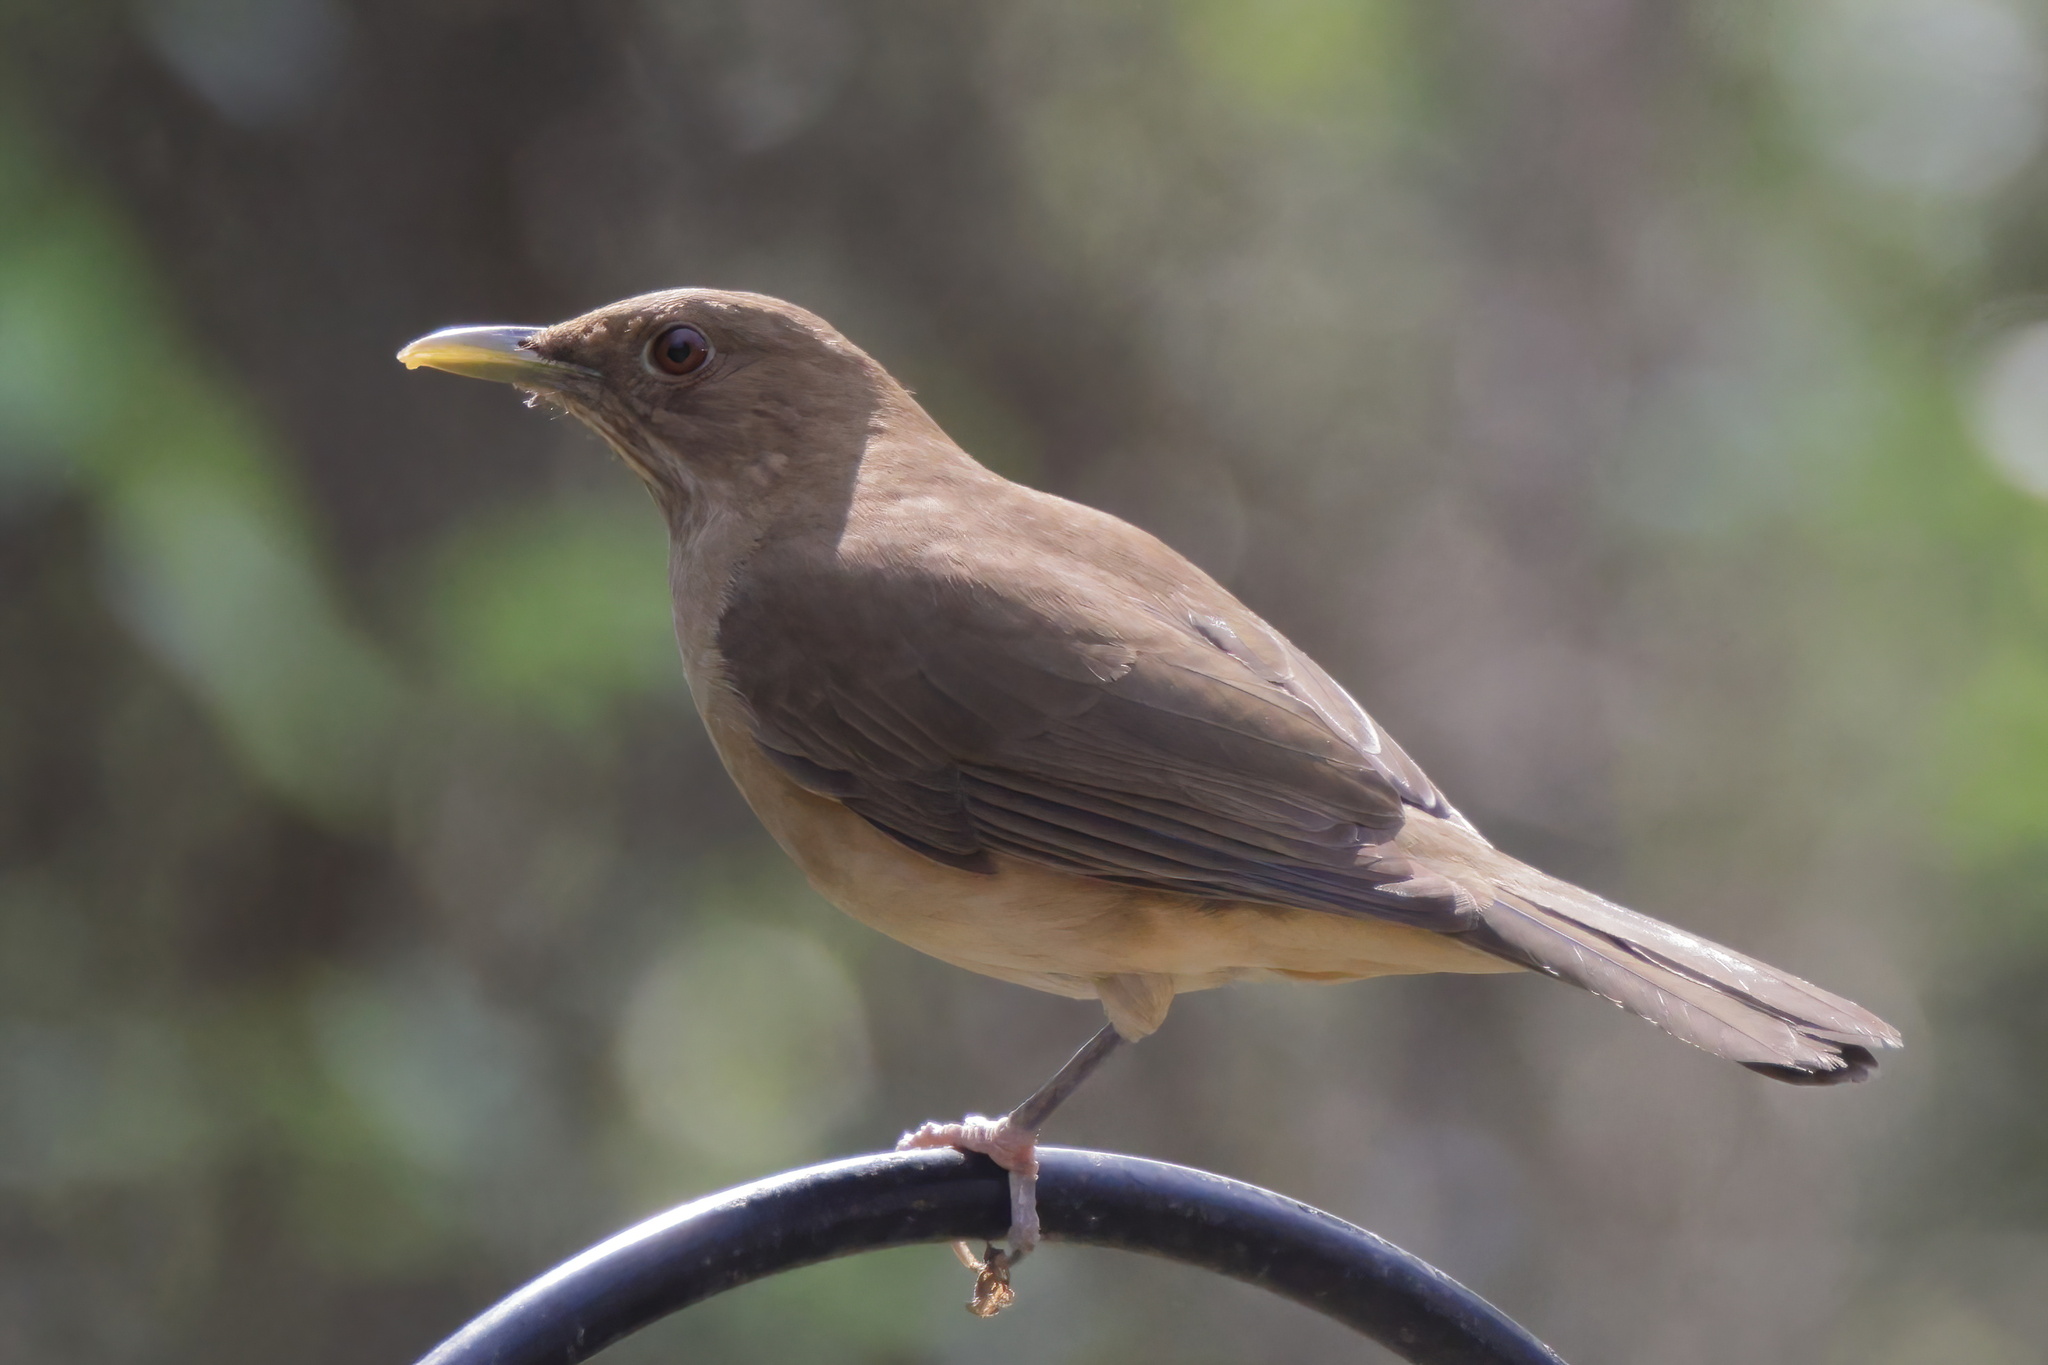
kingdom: Animalia
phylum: Chordata
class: Aves
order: Passeriformes
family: Turdidae
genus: Turdus
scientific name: Turdus grayi
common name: Clay-colored thrush
